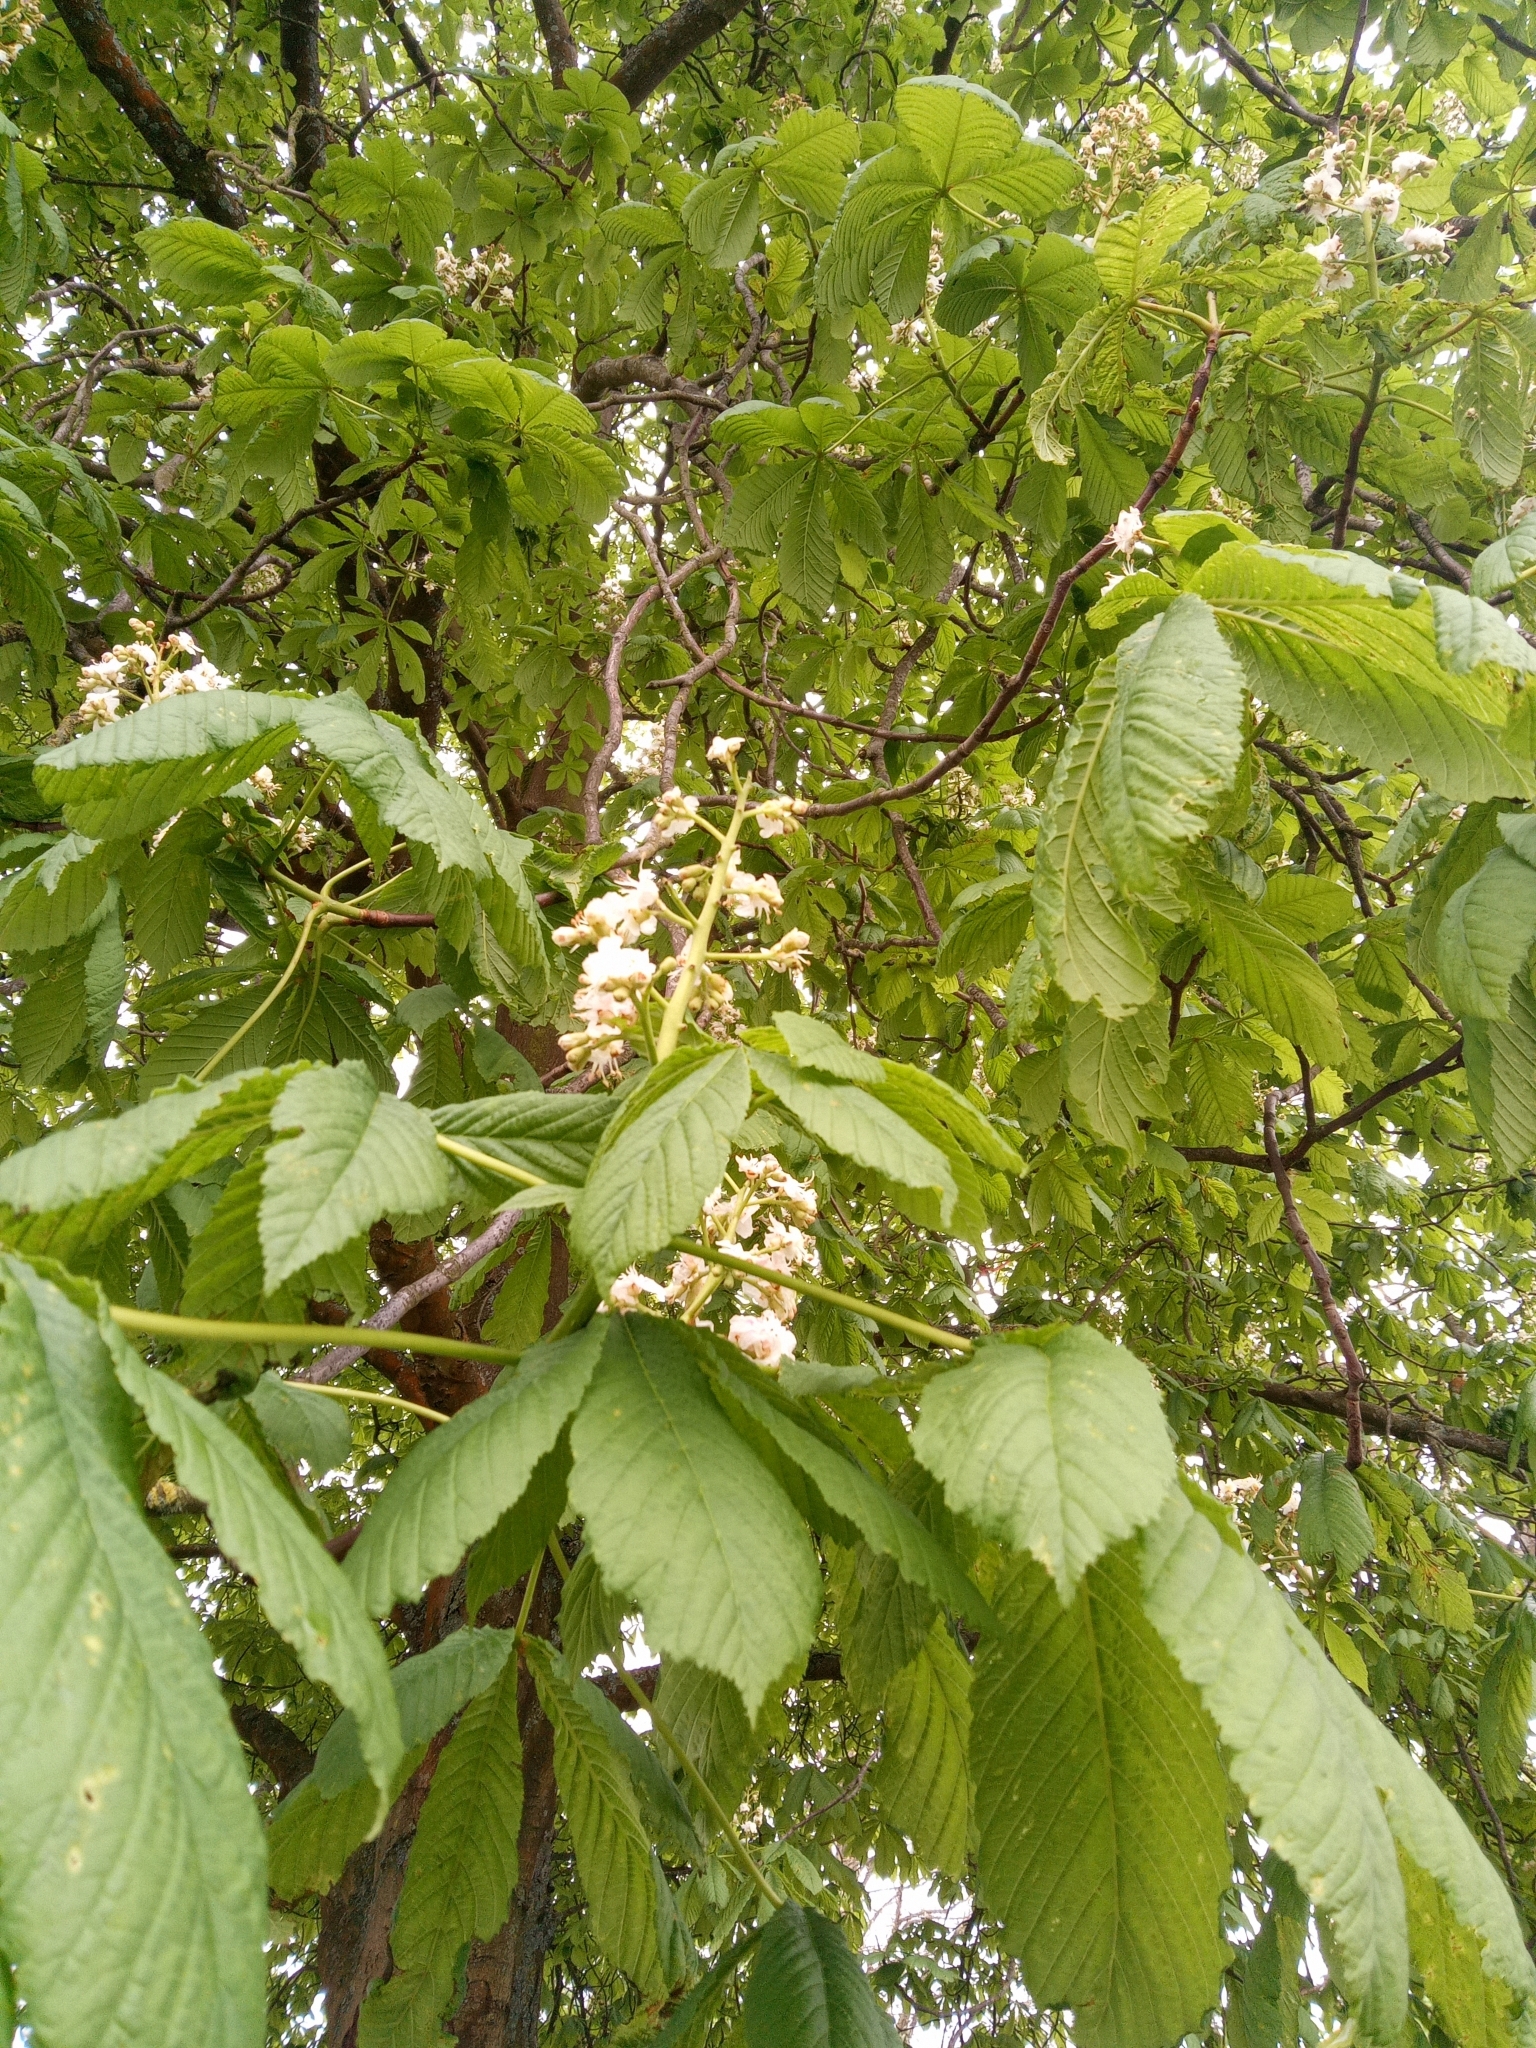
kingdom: Plantae
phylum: Tracheophyta
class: Magnoliopsida
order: Sapindales
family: Sapindaceae
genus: Aesculus
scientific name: Aesculus hippocastanum
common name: Horse-chestnut
